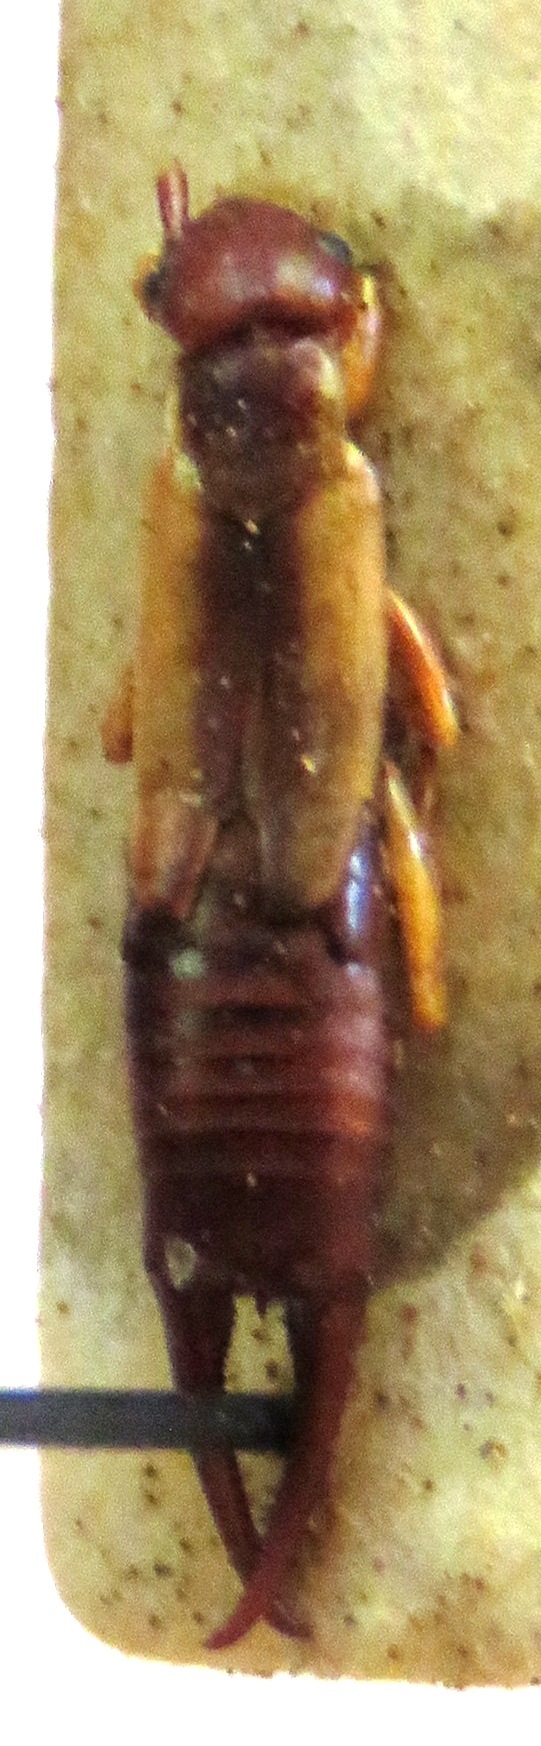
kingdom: Animalia
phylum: Arthropoda
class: Insecta
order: Dermaptera
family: Forficulidae
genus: Doru
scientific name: Doru taeniatum
